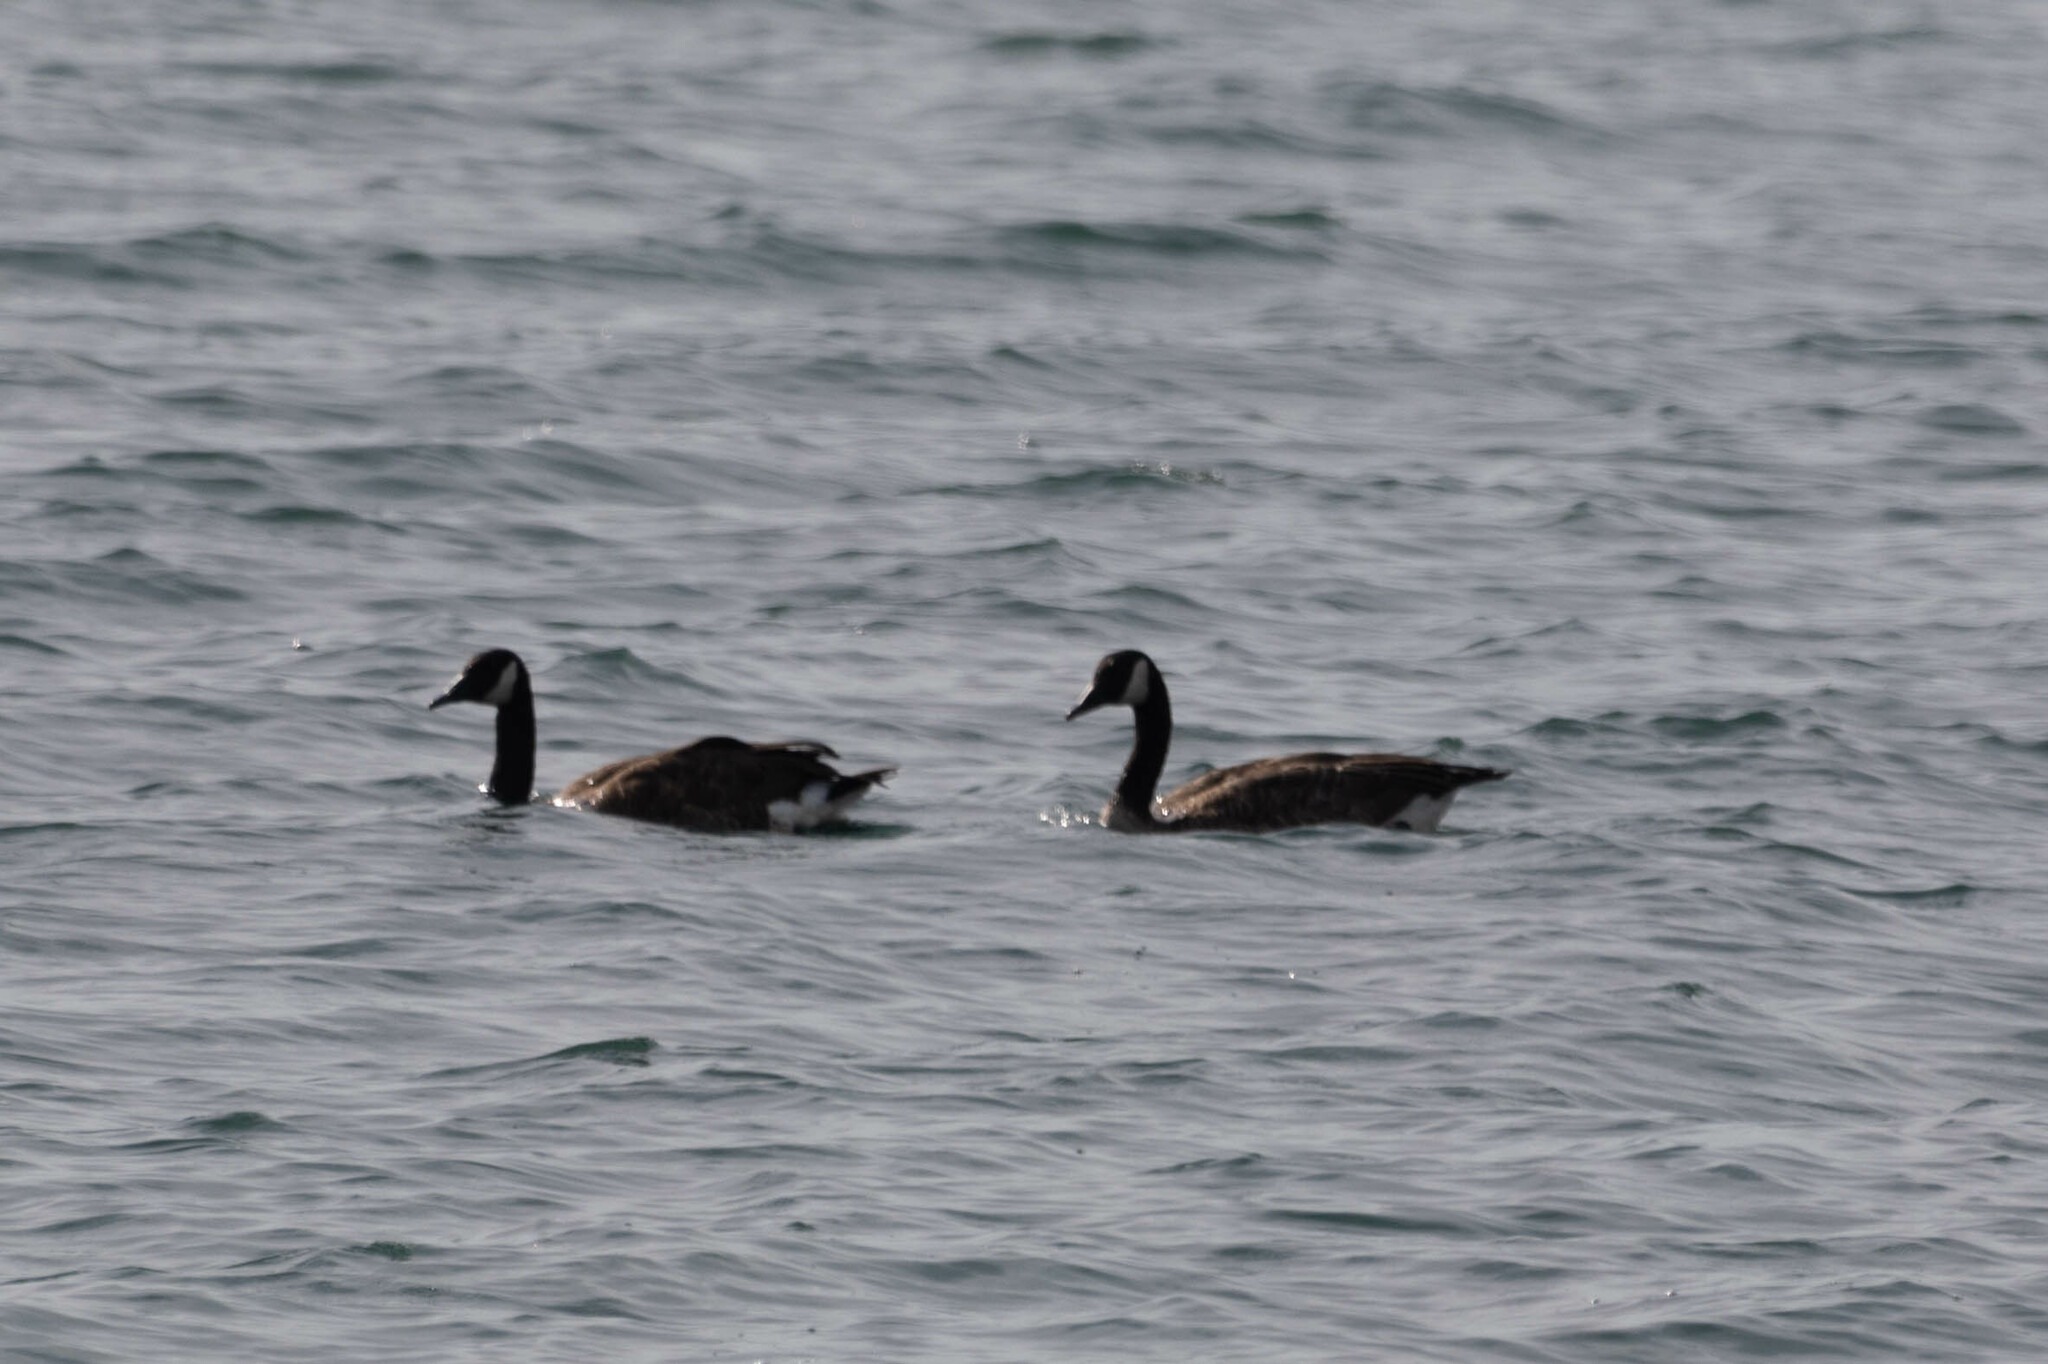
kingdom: Animalia
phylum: Chordata
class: Aves
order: Anseriformes
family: Anatidae
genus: Branta
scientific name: Branta canadensis
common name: Canada goose
